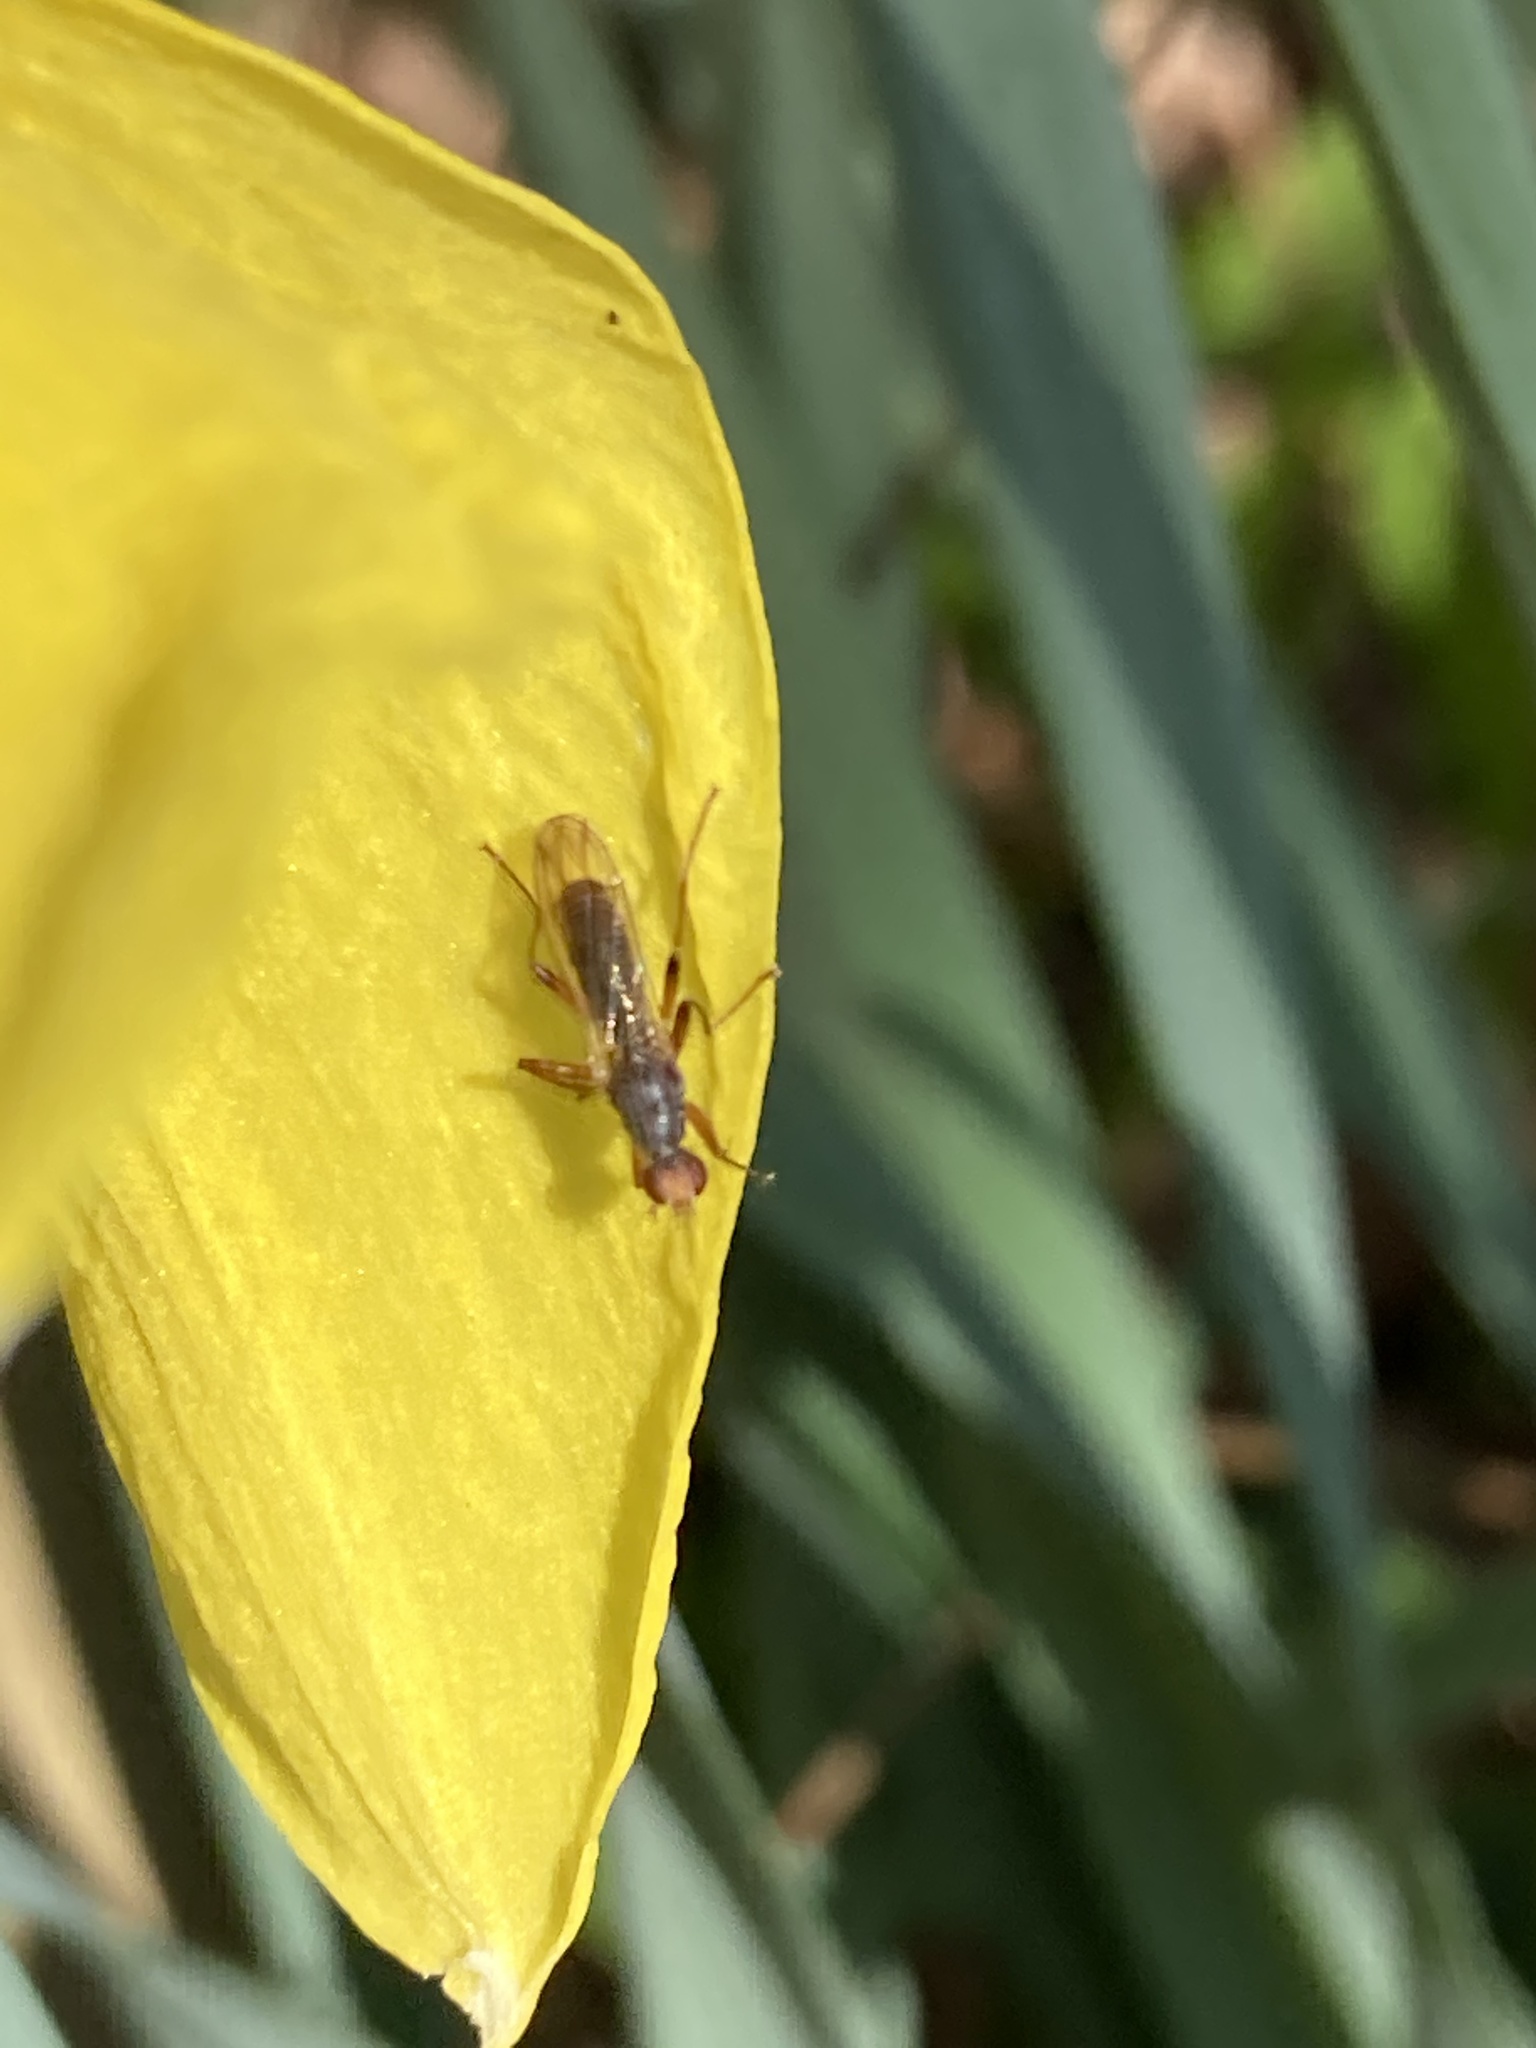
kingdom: Animalia
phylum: Arthropoda
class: Insecta
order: Diptera
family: Scathophagidae
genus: Norellia
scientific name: Norellia spinipes
